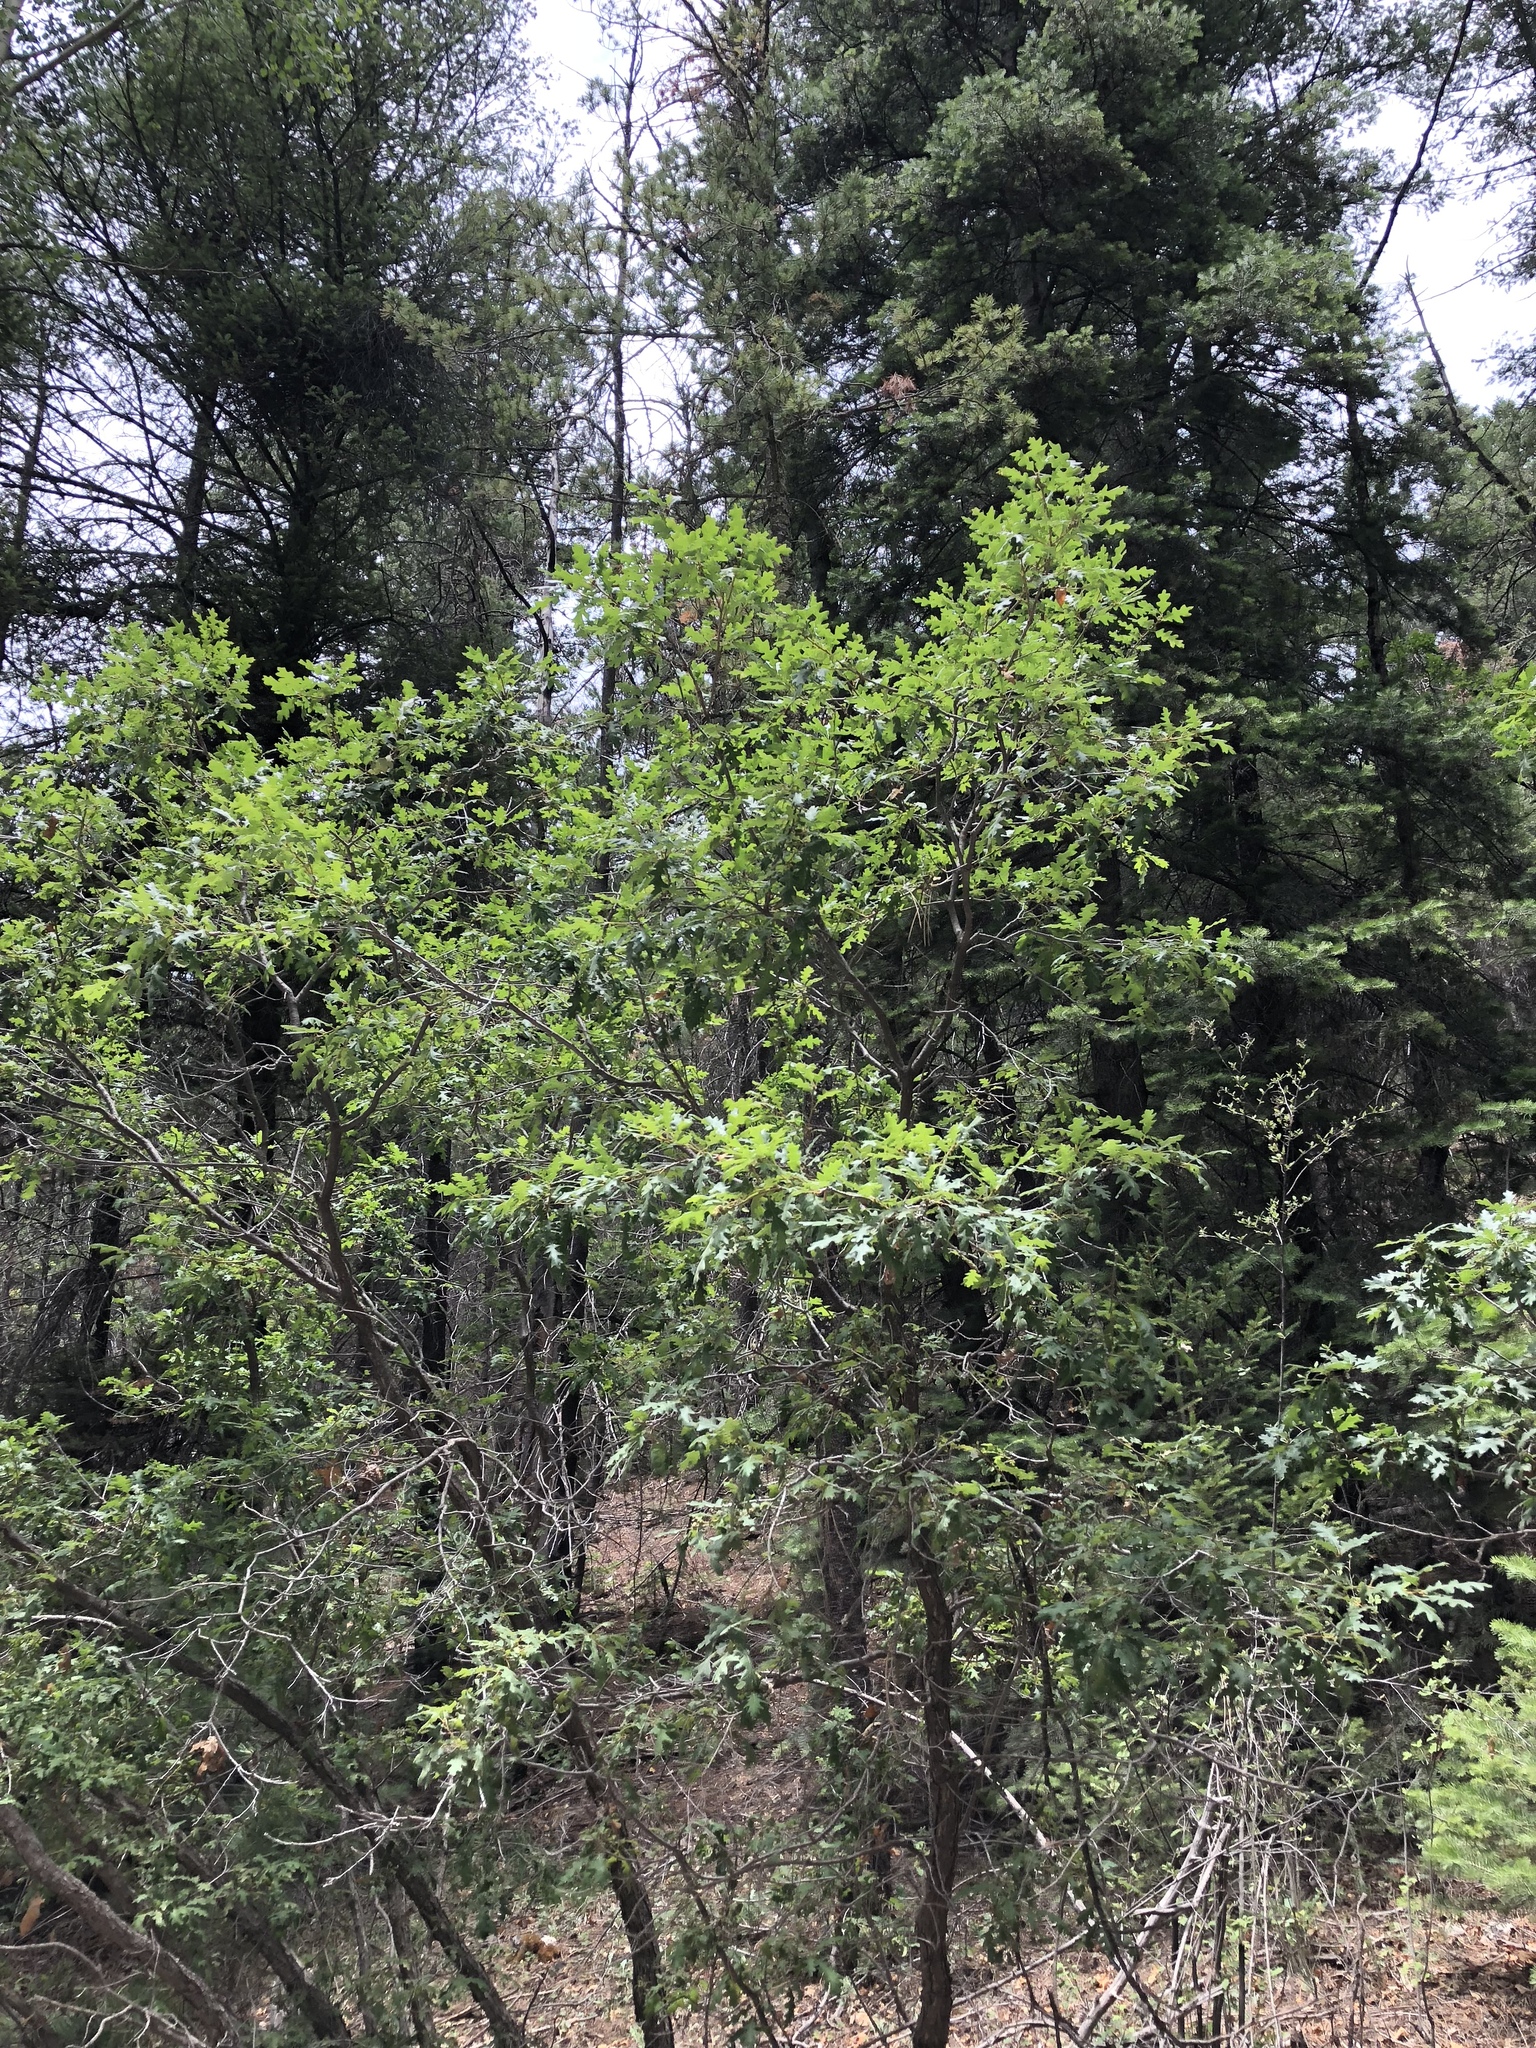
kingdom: Plantae
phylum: Tracheophyta
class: Magnoliopsida
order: Fagales
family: Fagaceae
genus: Quercus
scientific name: Quercus gambelii
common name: Gambel oak
